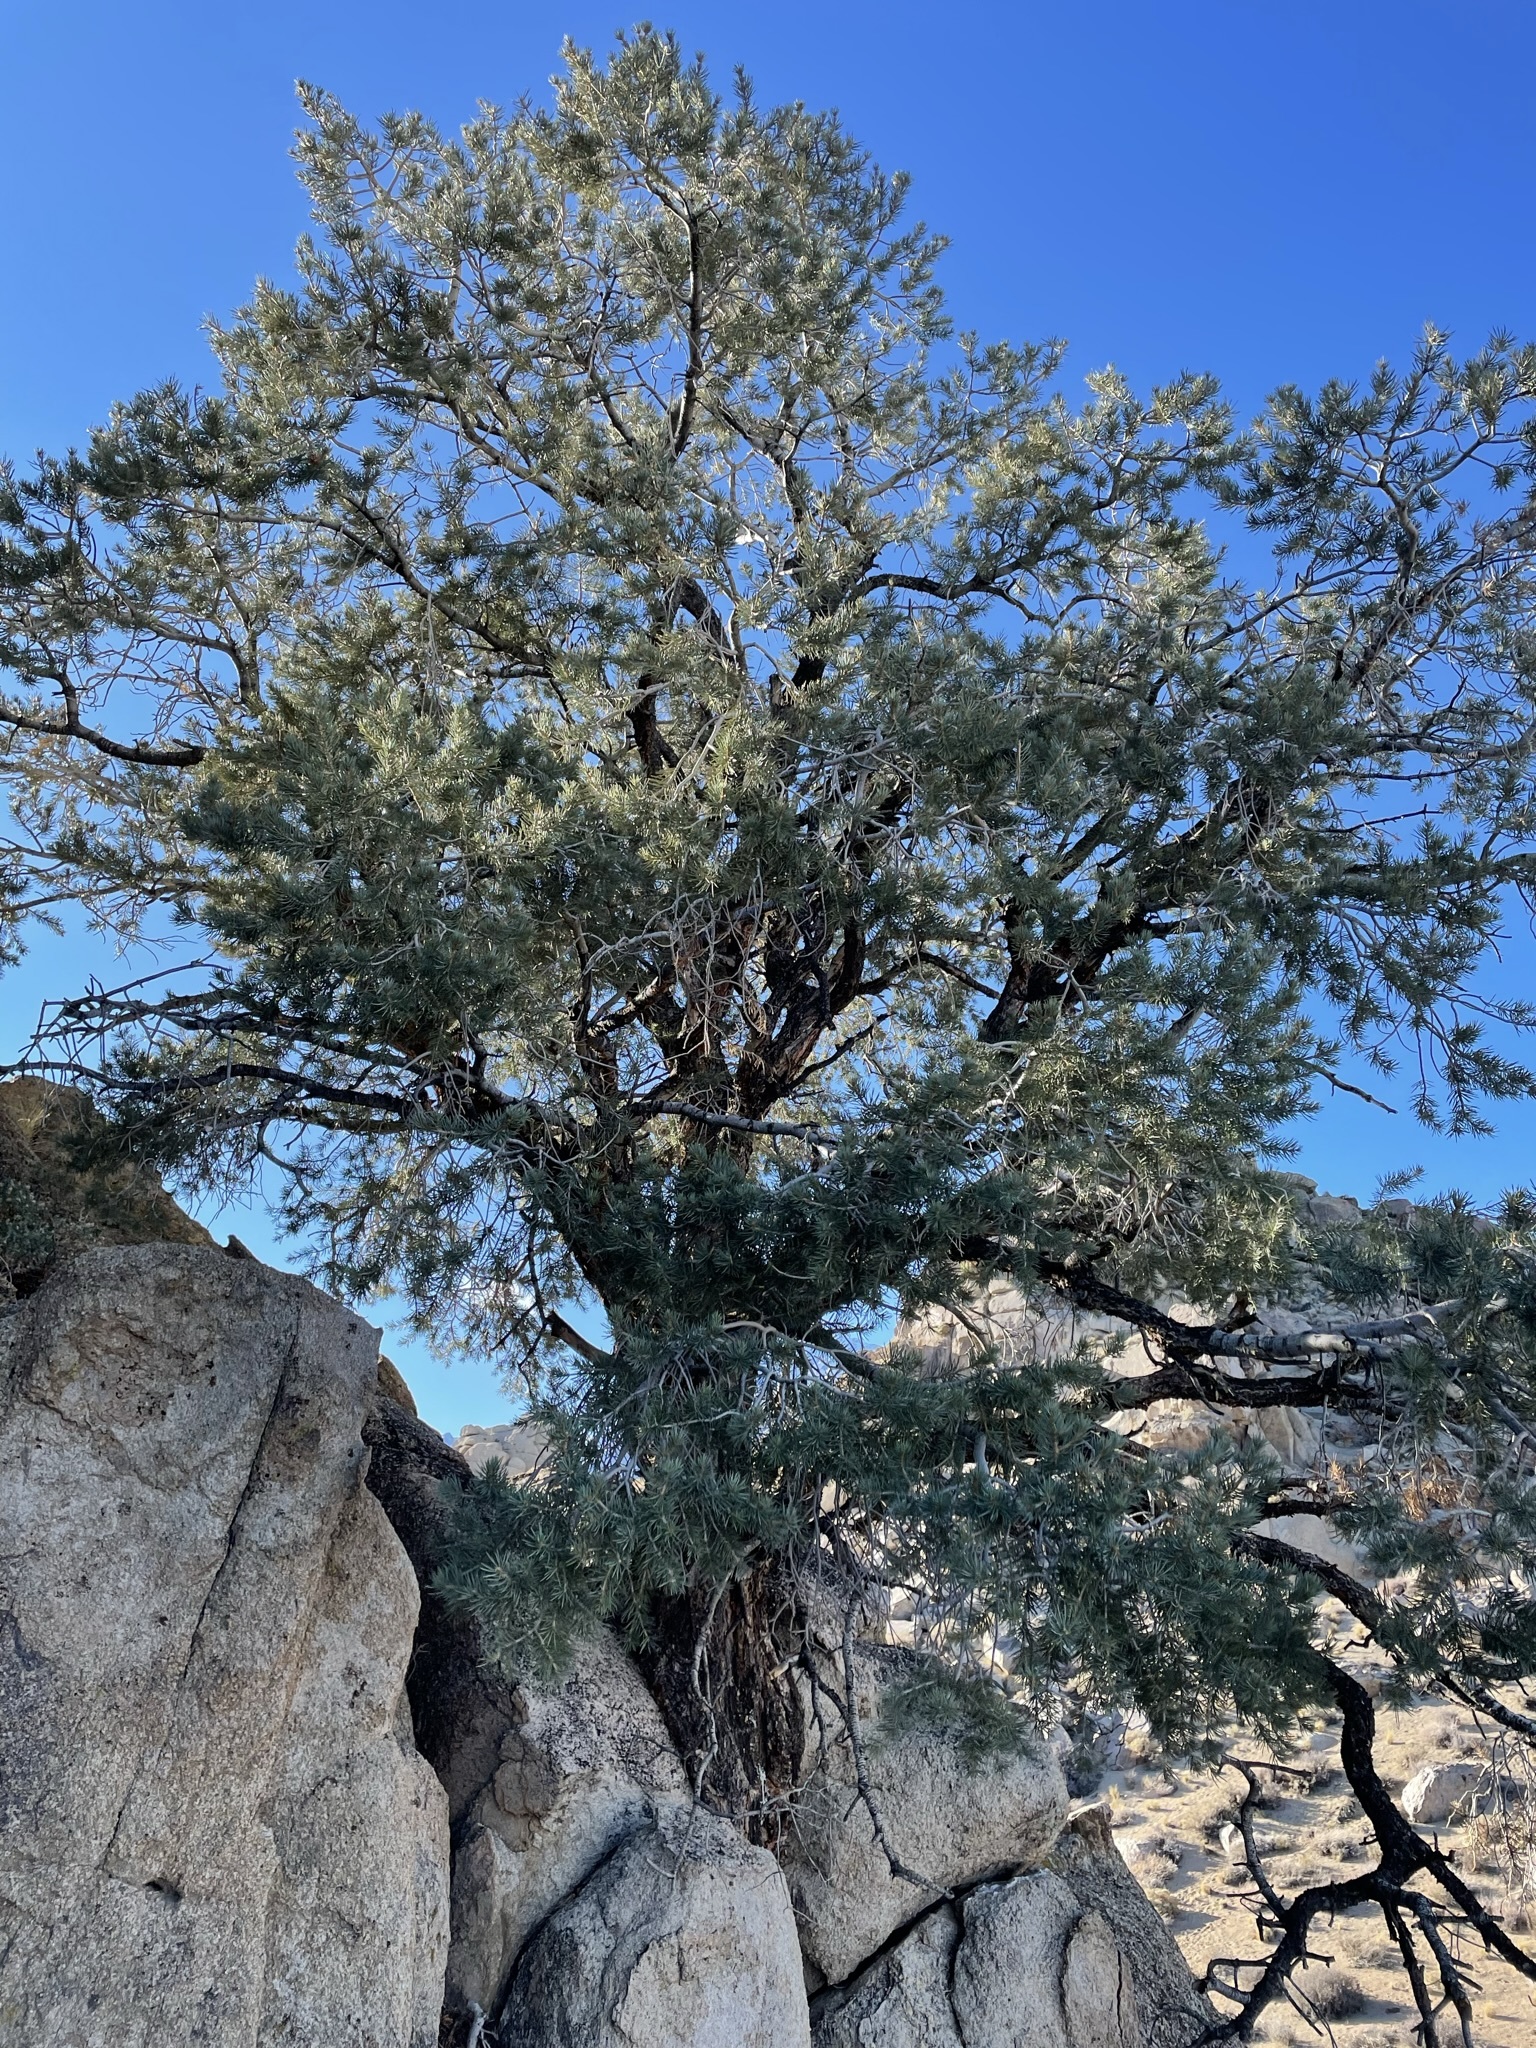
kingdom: Plantae
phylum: Tracheophyta
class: Pinopsida
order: Pinales
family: Pinaceae
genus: Pinus
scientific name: Pinus monophylla
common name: One-leaved nut pine
